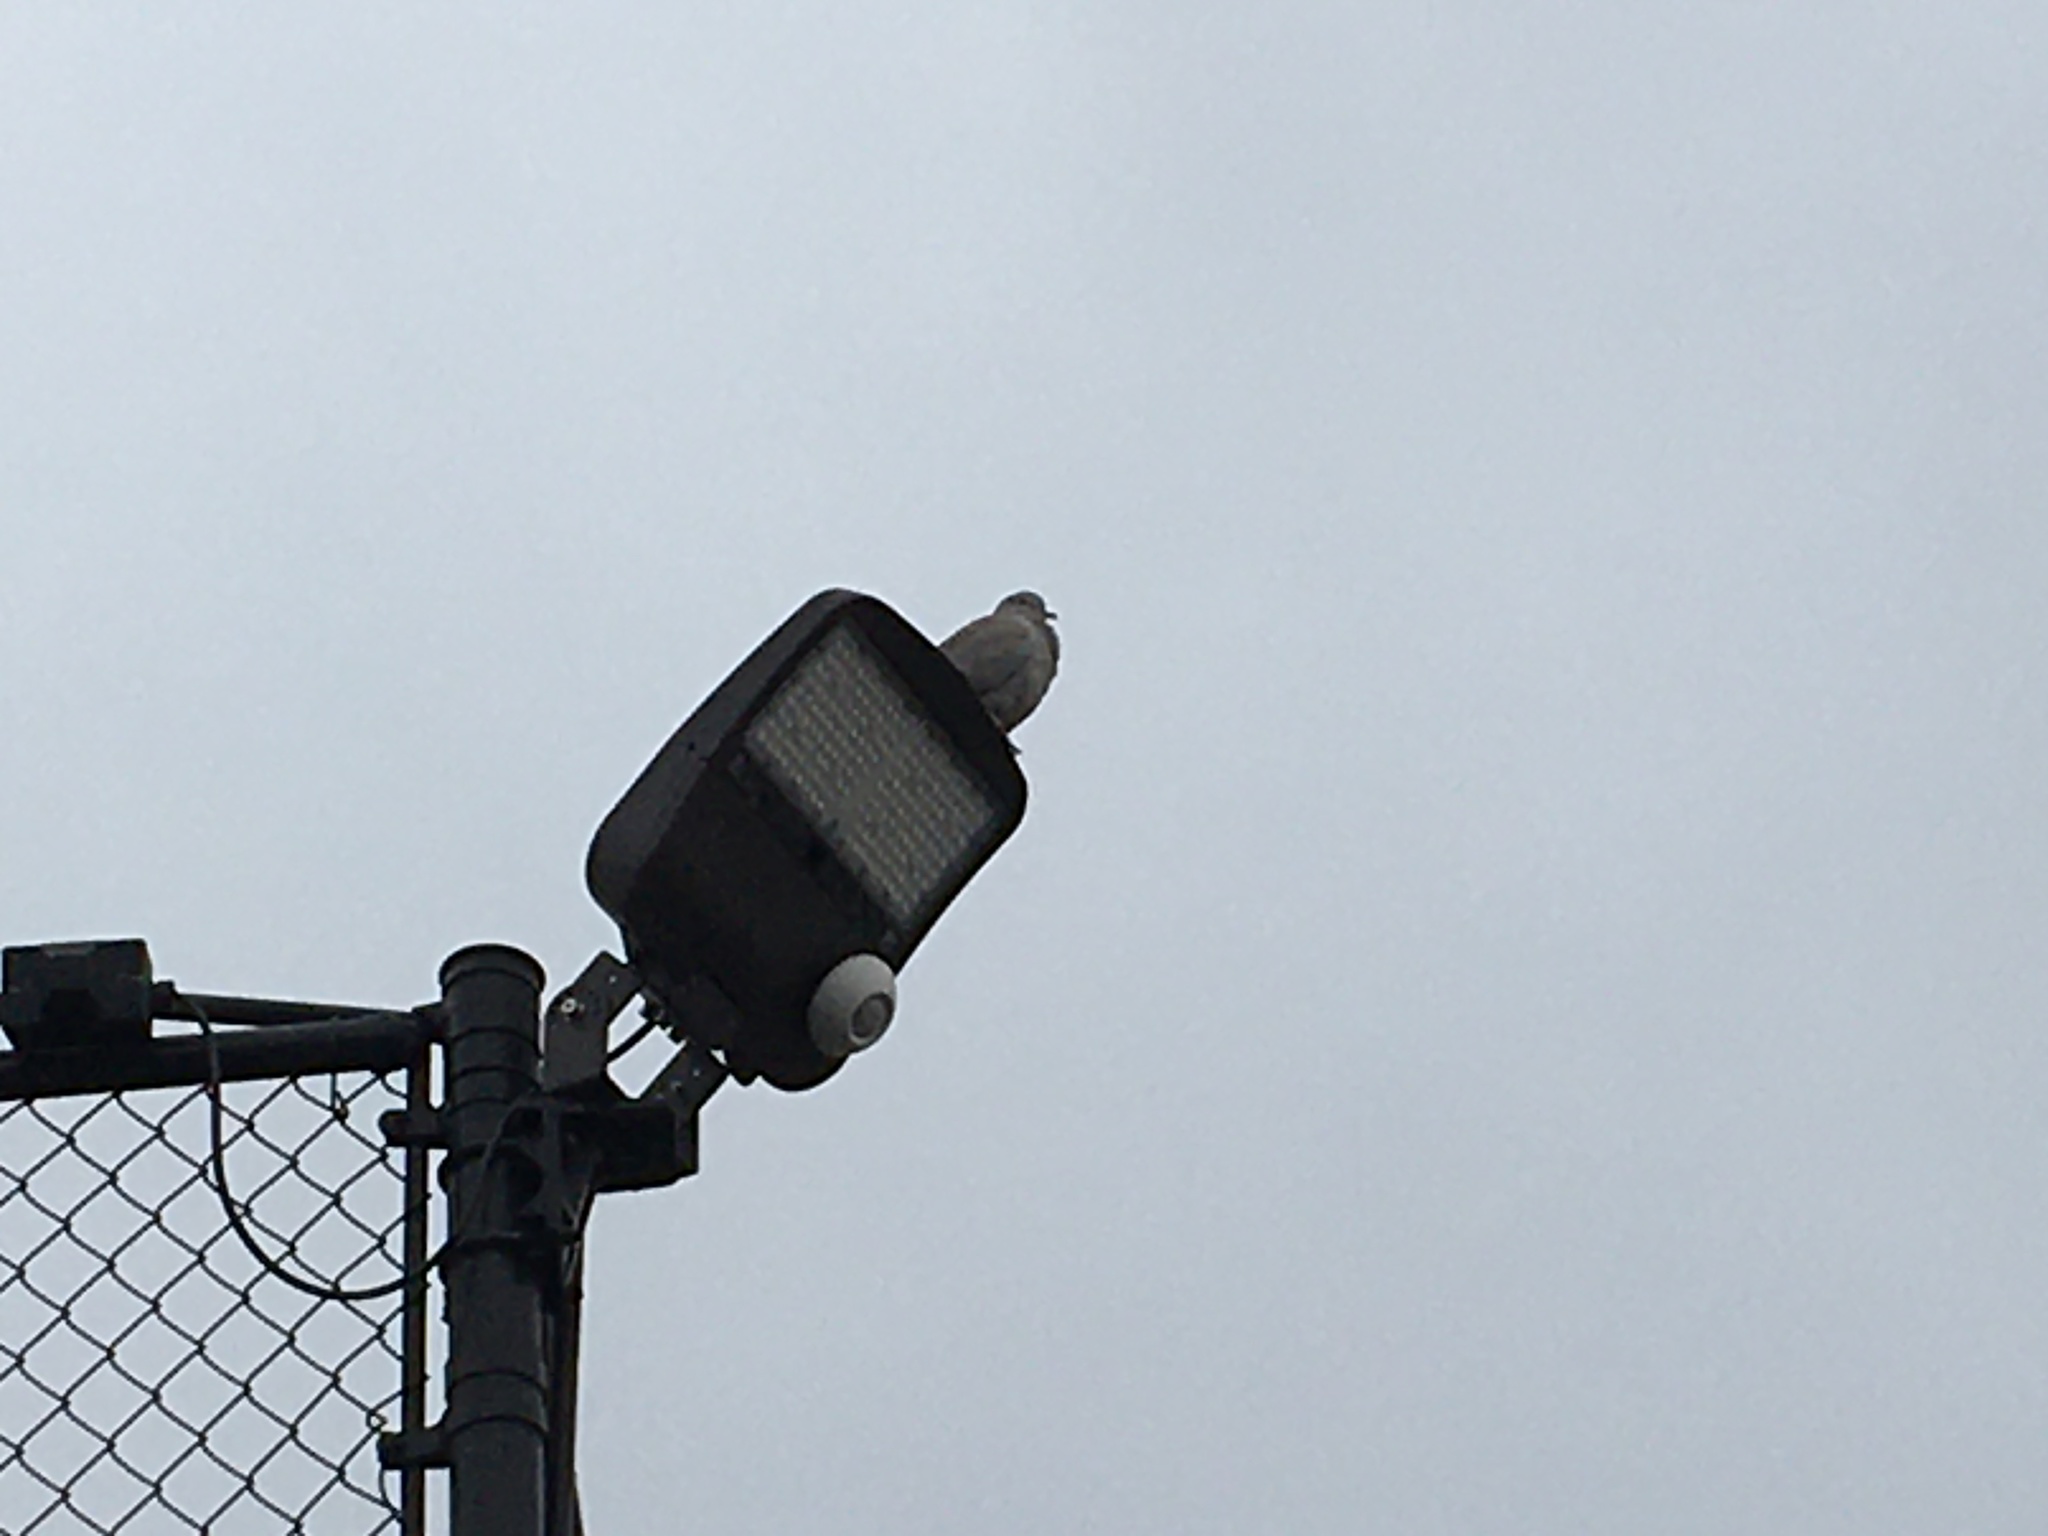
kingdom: Animalia
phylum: Chordata
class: Aves
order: Columbiformes
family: Columbidae
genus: Zenaida
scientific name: Zenaida macroura
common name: Mourning dove
